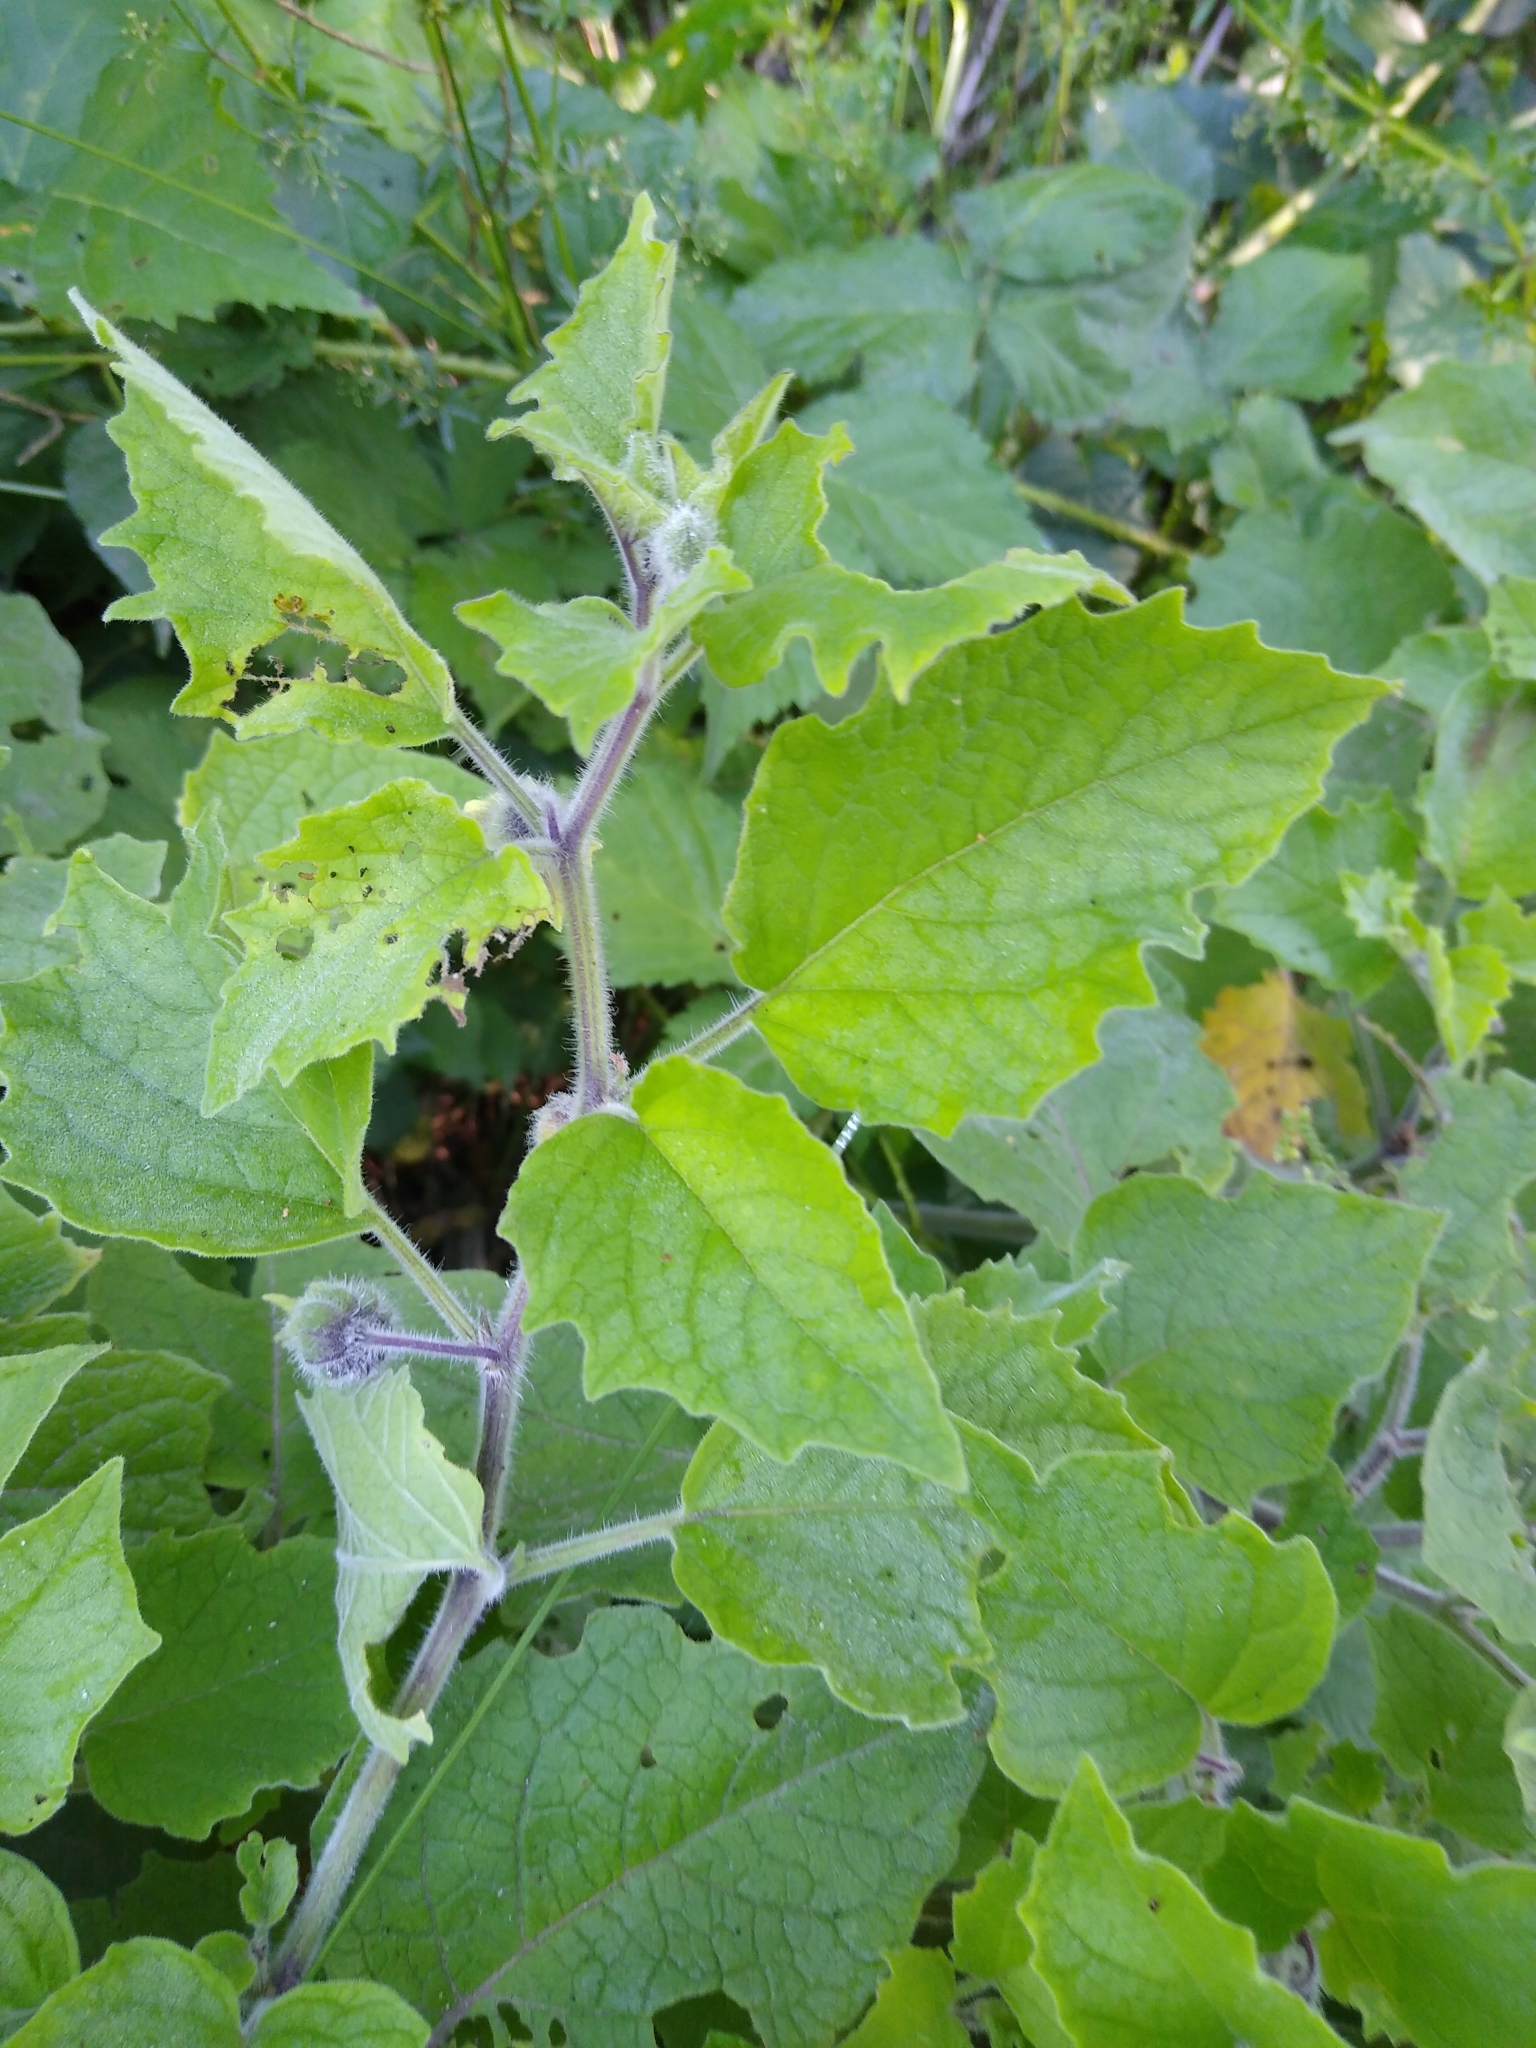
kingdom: Plantae
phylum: Tracheophyta
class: Magnoliopsida
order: Solanales
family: Solanaceae
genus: Physalis
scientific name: Physalis heterophylla
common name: Clammy ground-cherry
